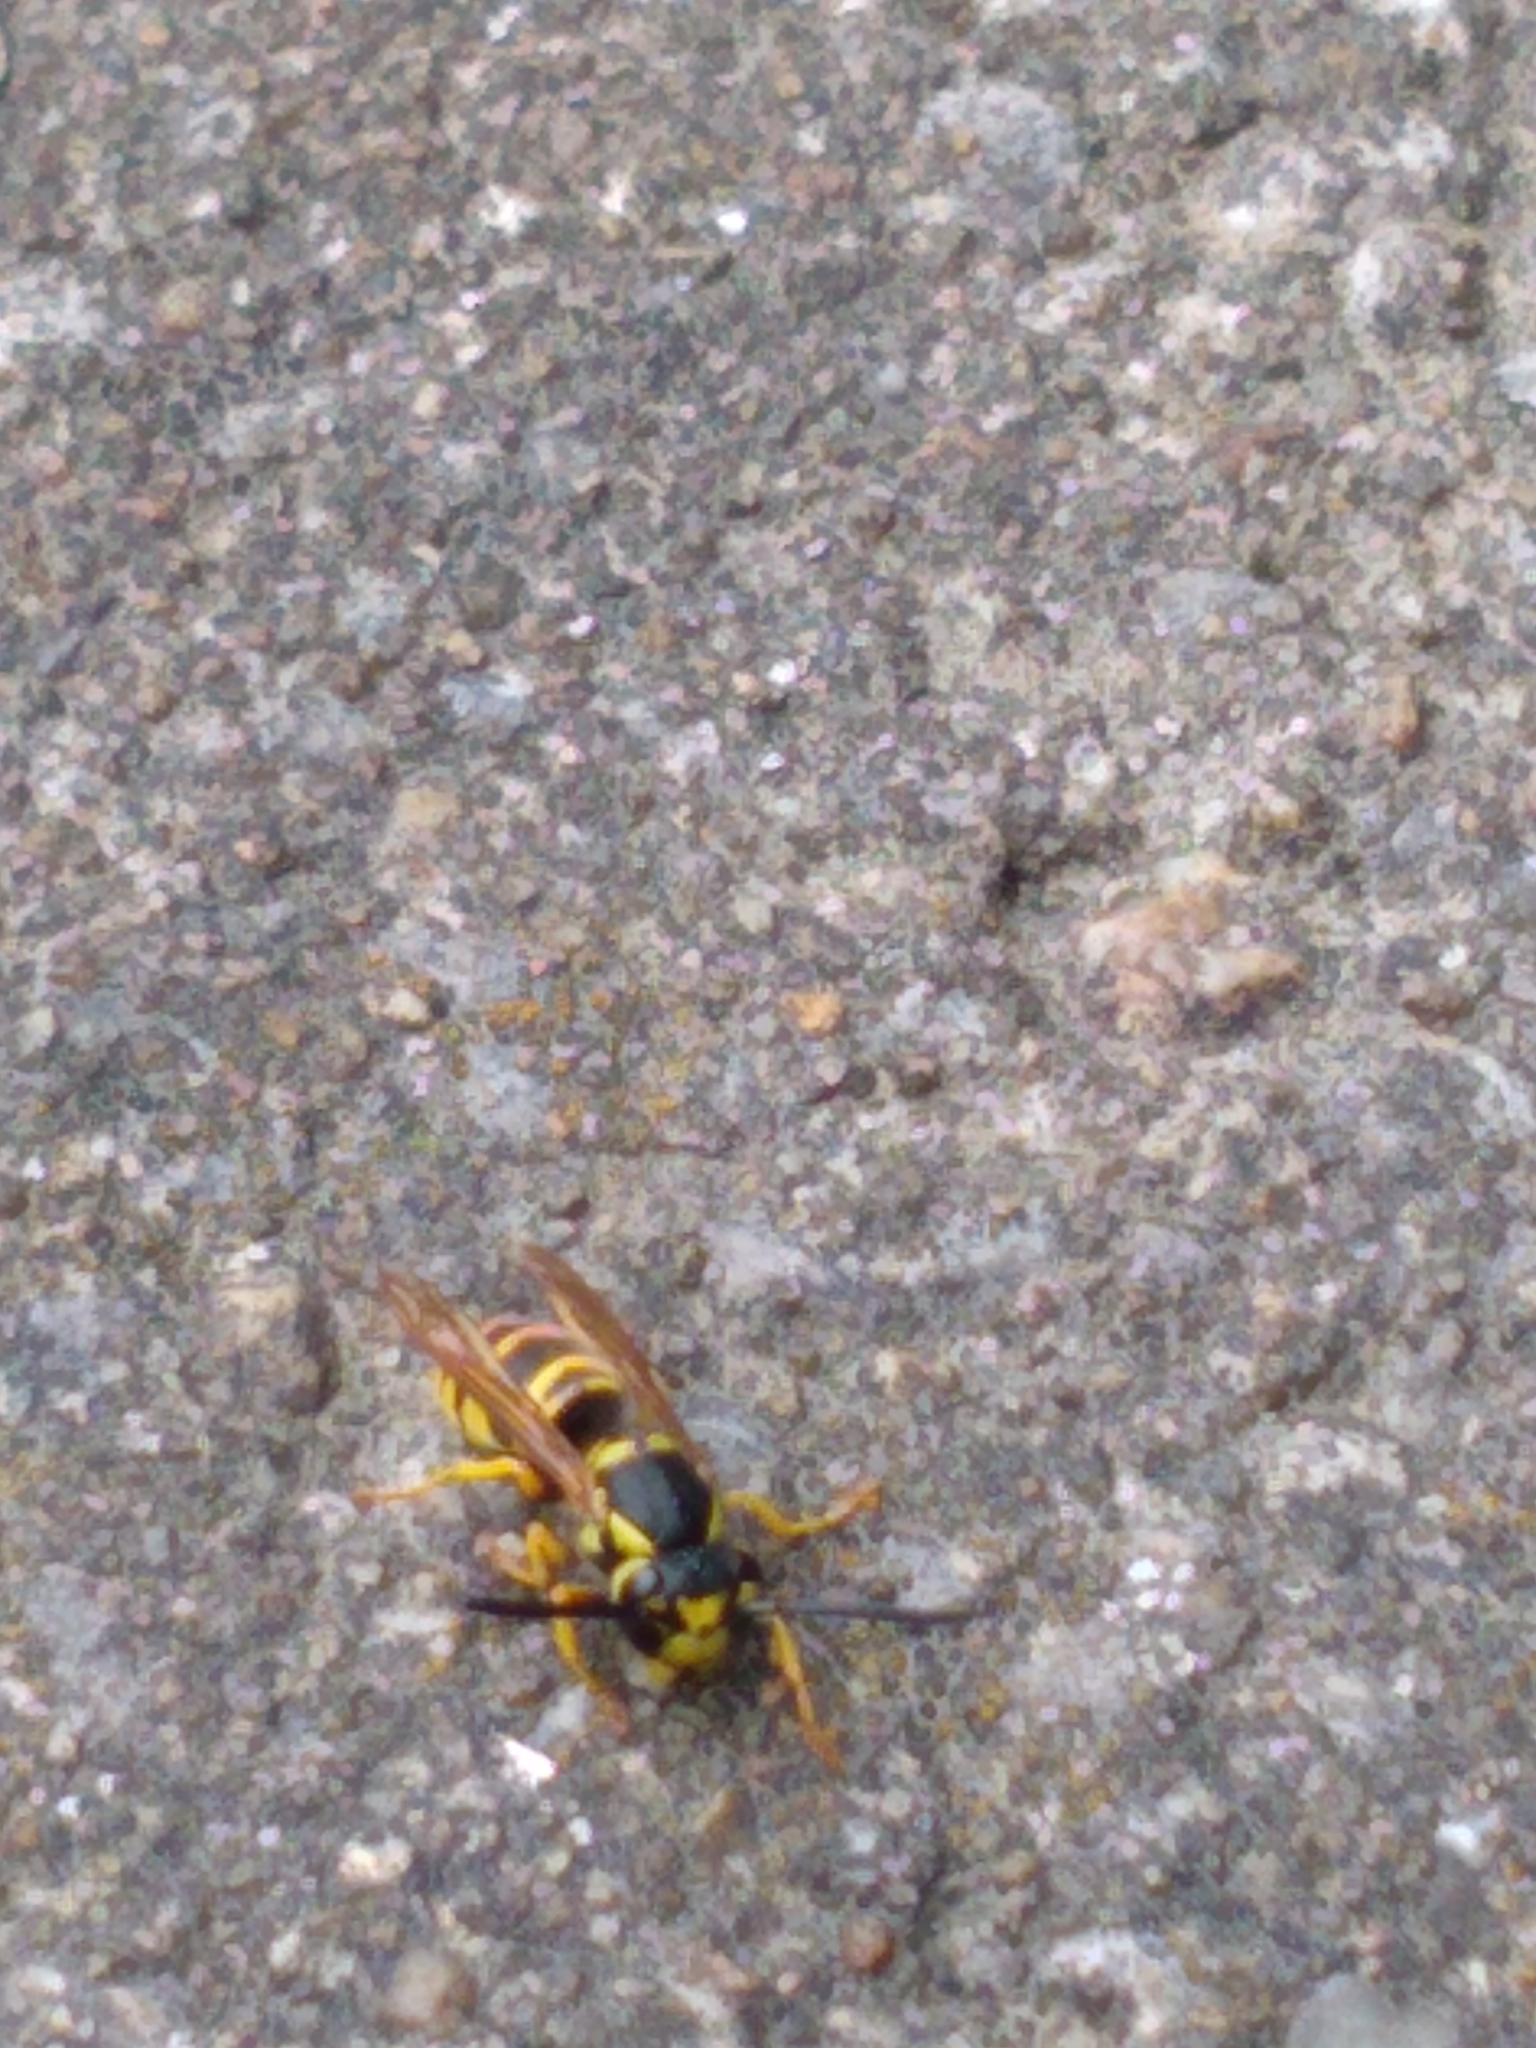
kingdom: Animalia
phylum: Arthropoda
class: Insecta
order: Hymenoptera
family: Vespidae
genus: Vespula
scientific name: Vespula maculifrons
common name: Eastern yellowjacket
